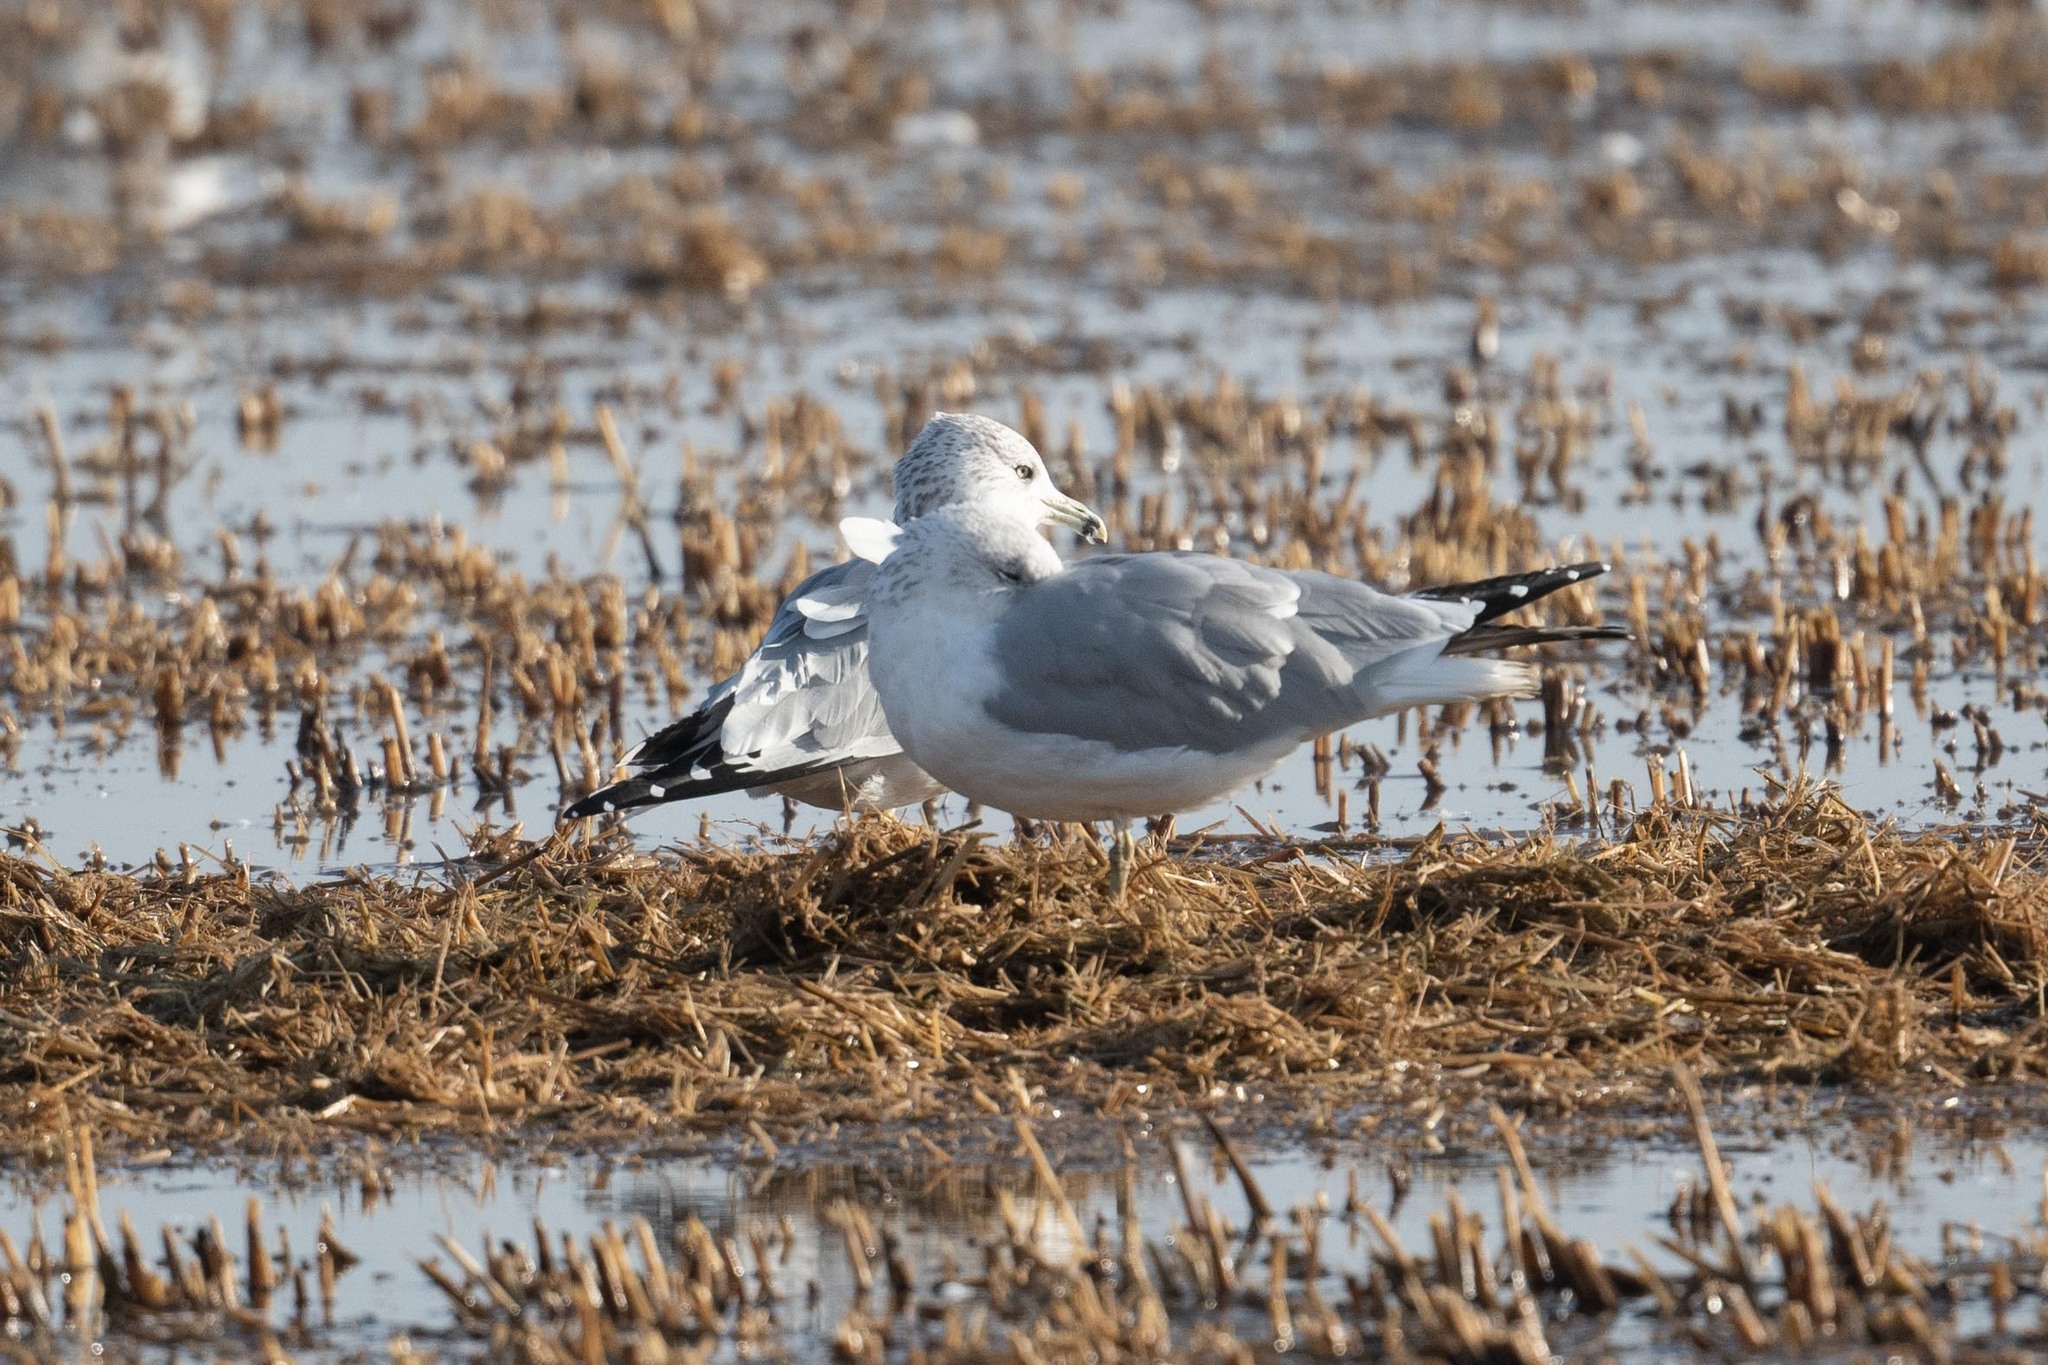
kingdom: Animalia
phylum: Chordata
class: Aves
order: Charadriiformes
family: Laridae
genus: Larus
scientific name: Larus delawarensis
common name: Ring-billed gull
